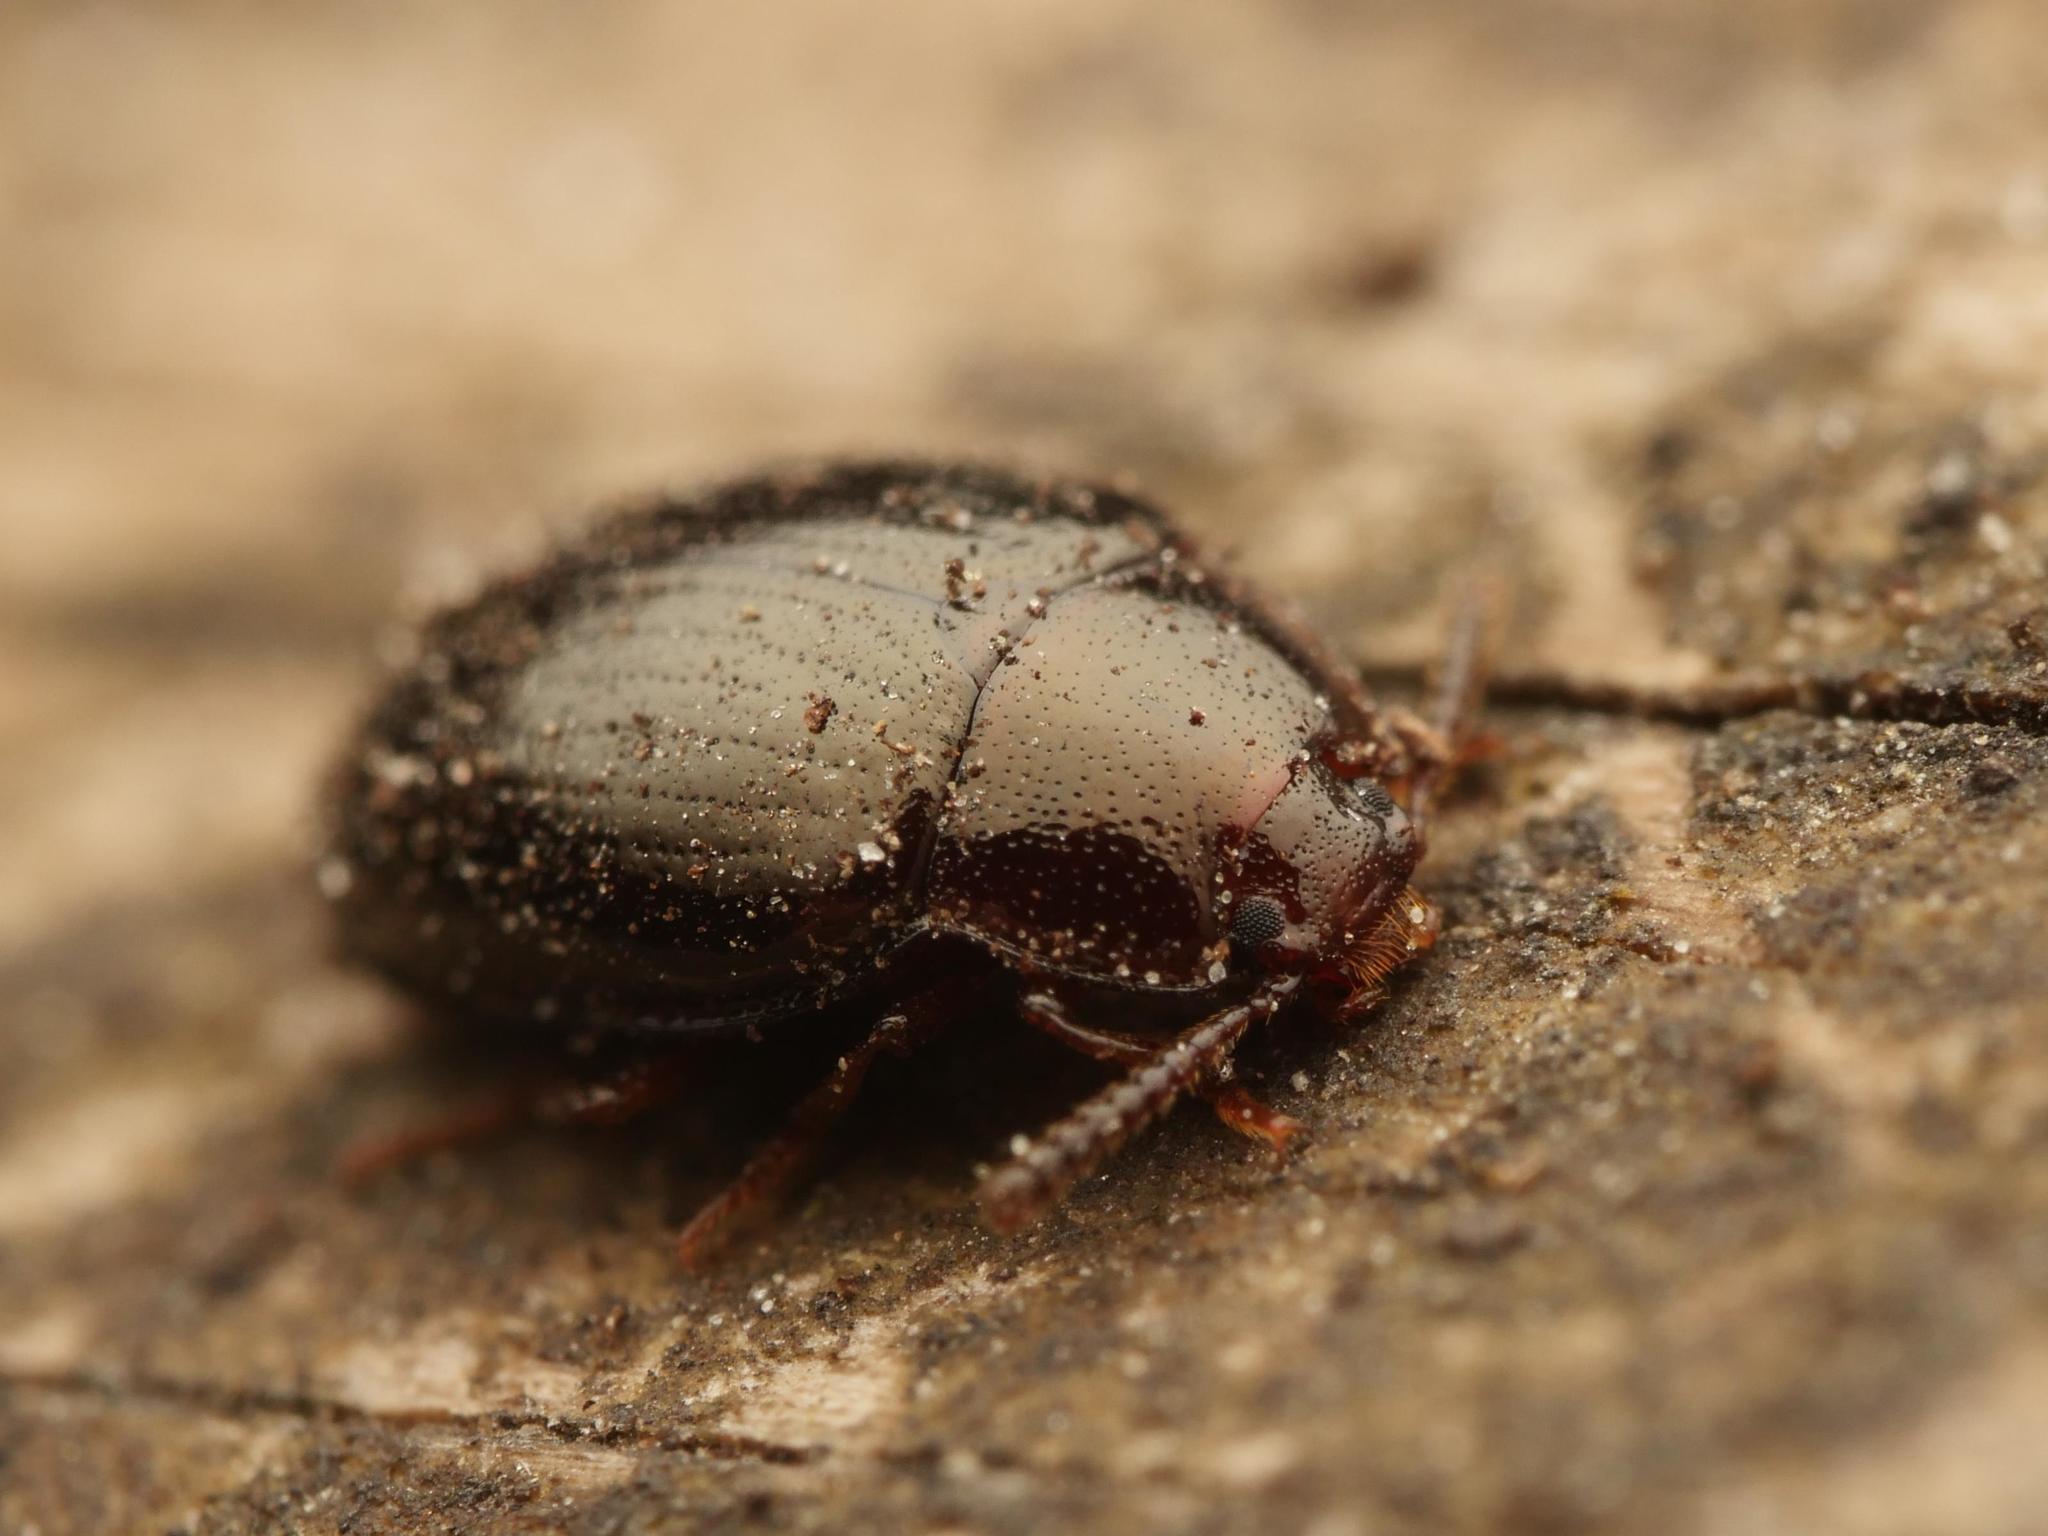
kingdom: Animalia
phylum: Arthropoda
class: Insecta
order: Coleoptera
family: Tenebrionidae
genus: Blapstinus
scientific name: Blapstinus metallicus
